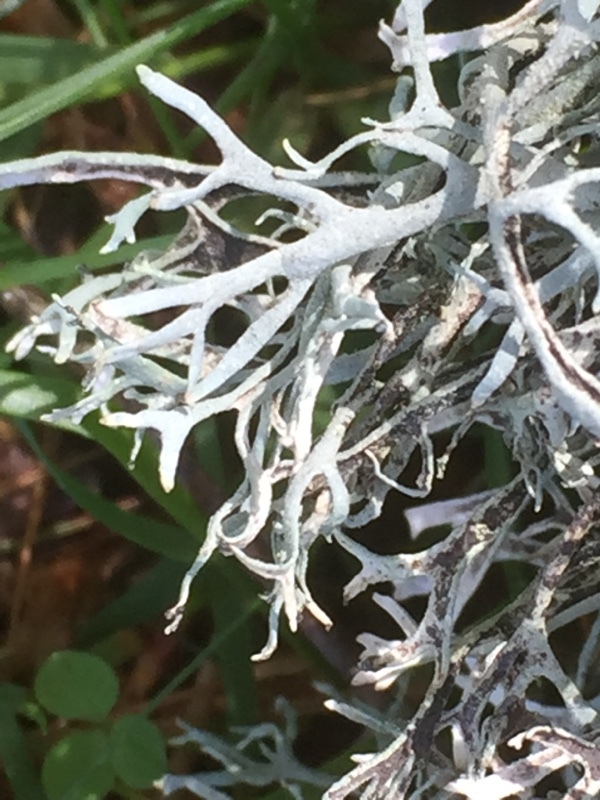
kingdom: Fungi
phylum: Ascomycota
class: Lecanoromycetes
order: Lecanorales
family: Parmeliaceae
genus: Pseudevernia
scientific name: Pseudevernia furfuracea
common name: Tree moss
